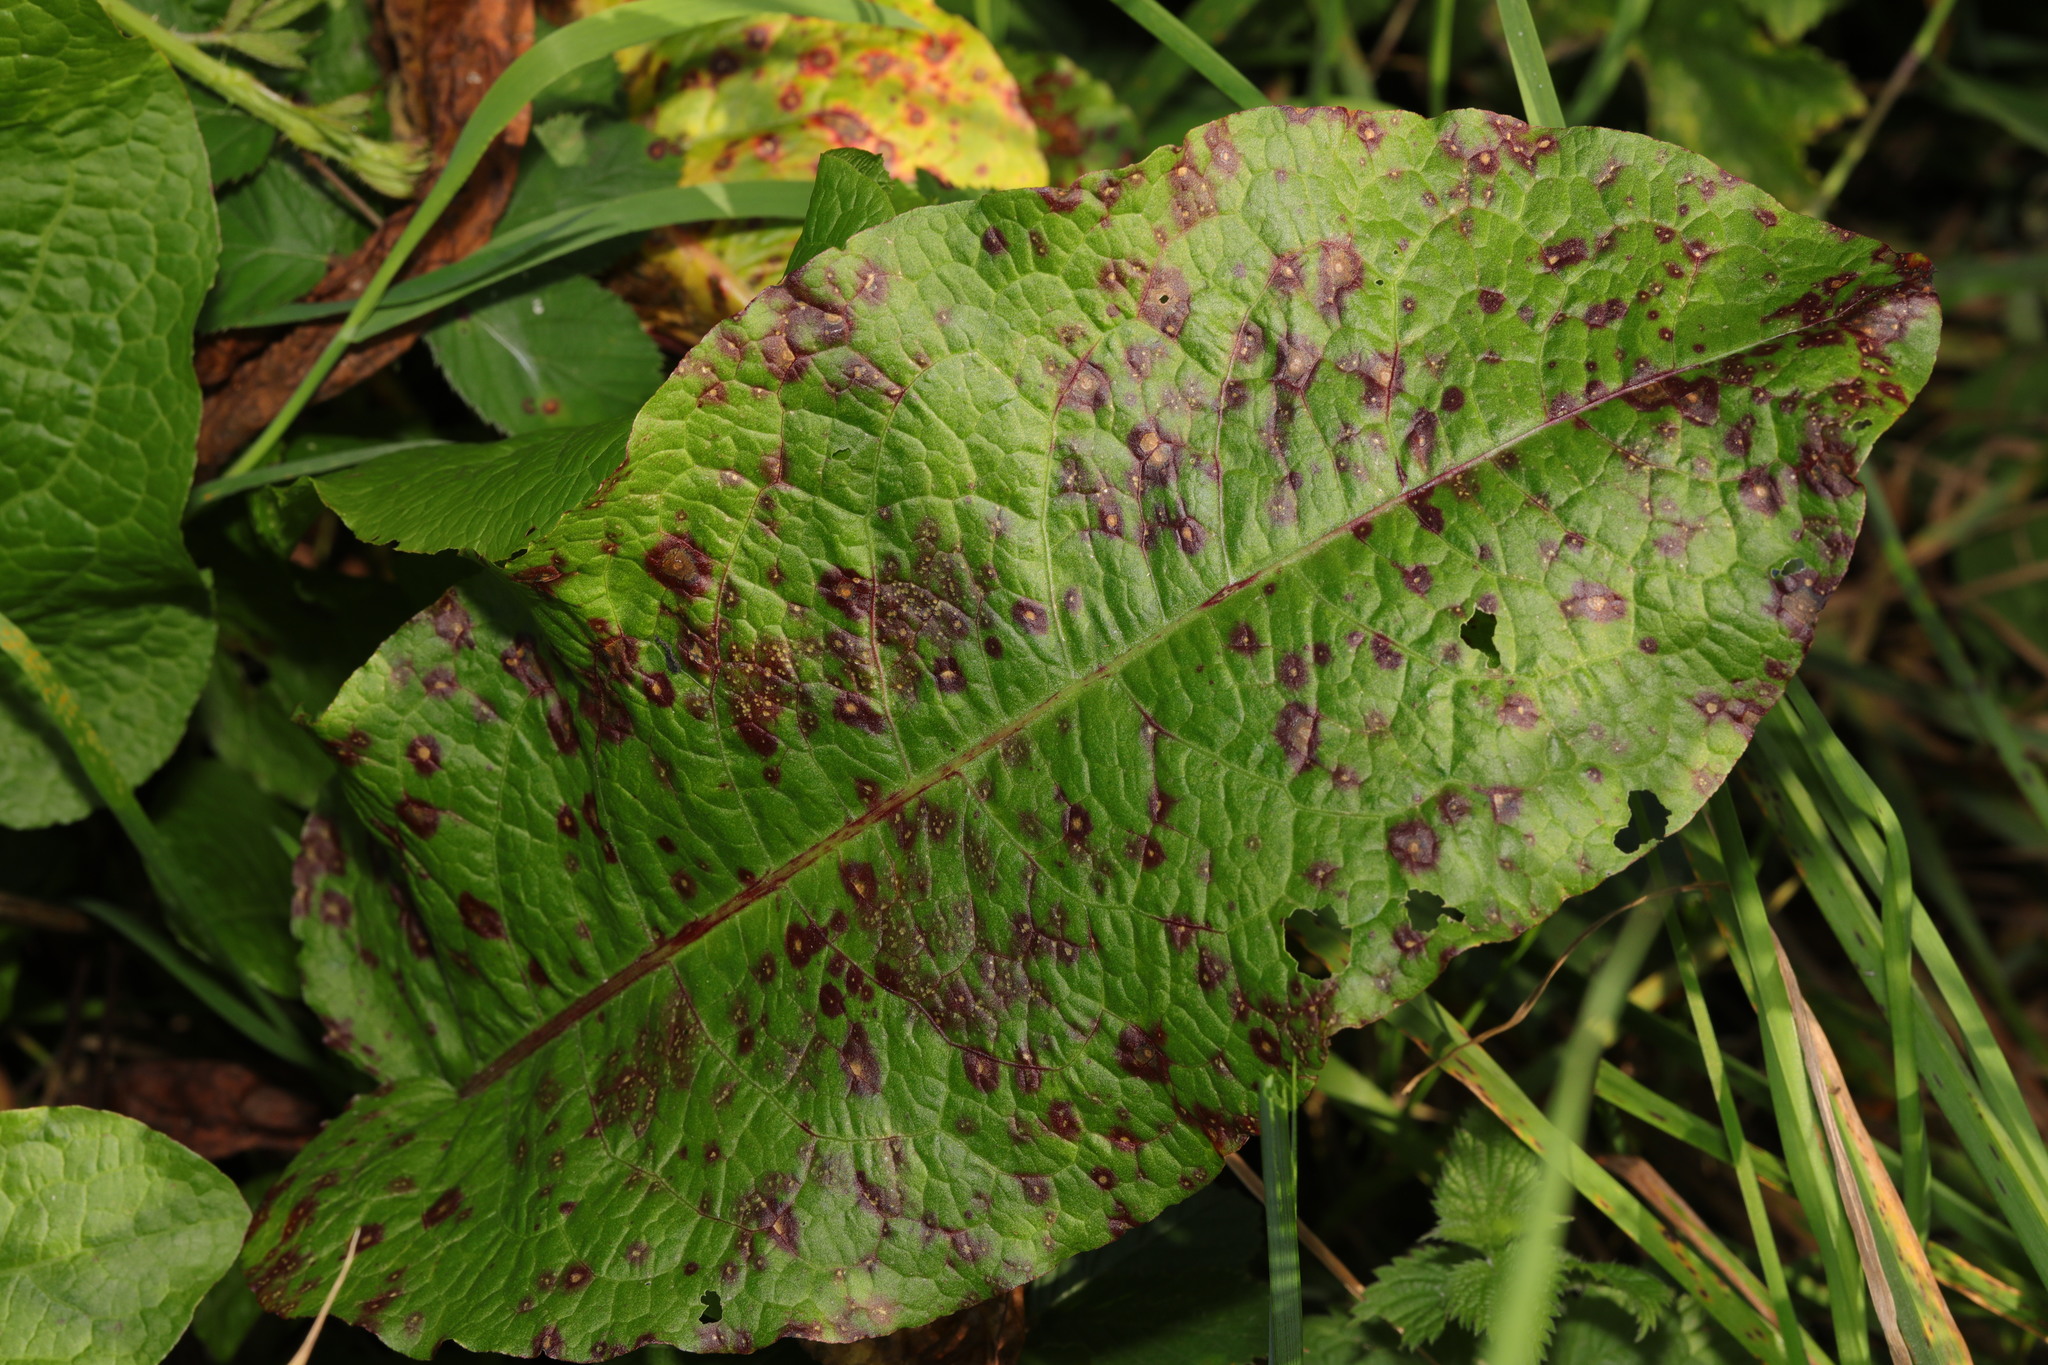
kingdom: Plantae
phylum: Tracheophyta
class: Magnoliopsida
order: Caryophyllales
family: Polygonaceae
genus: Rumex
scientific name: Rumex obtusifolius
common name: Bitter dock
